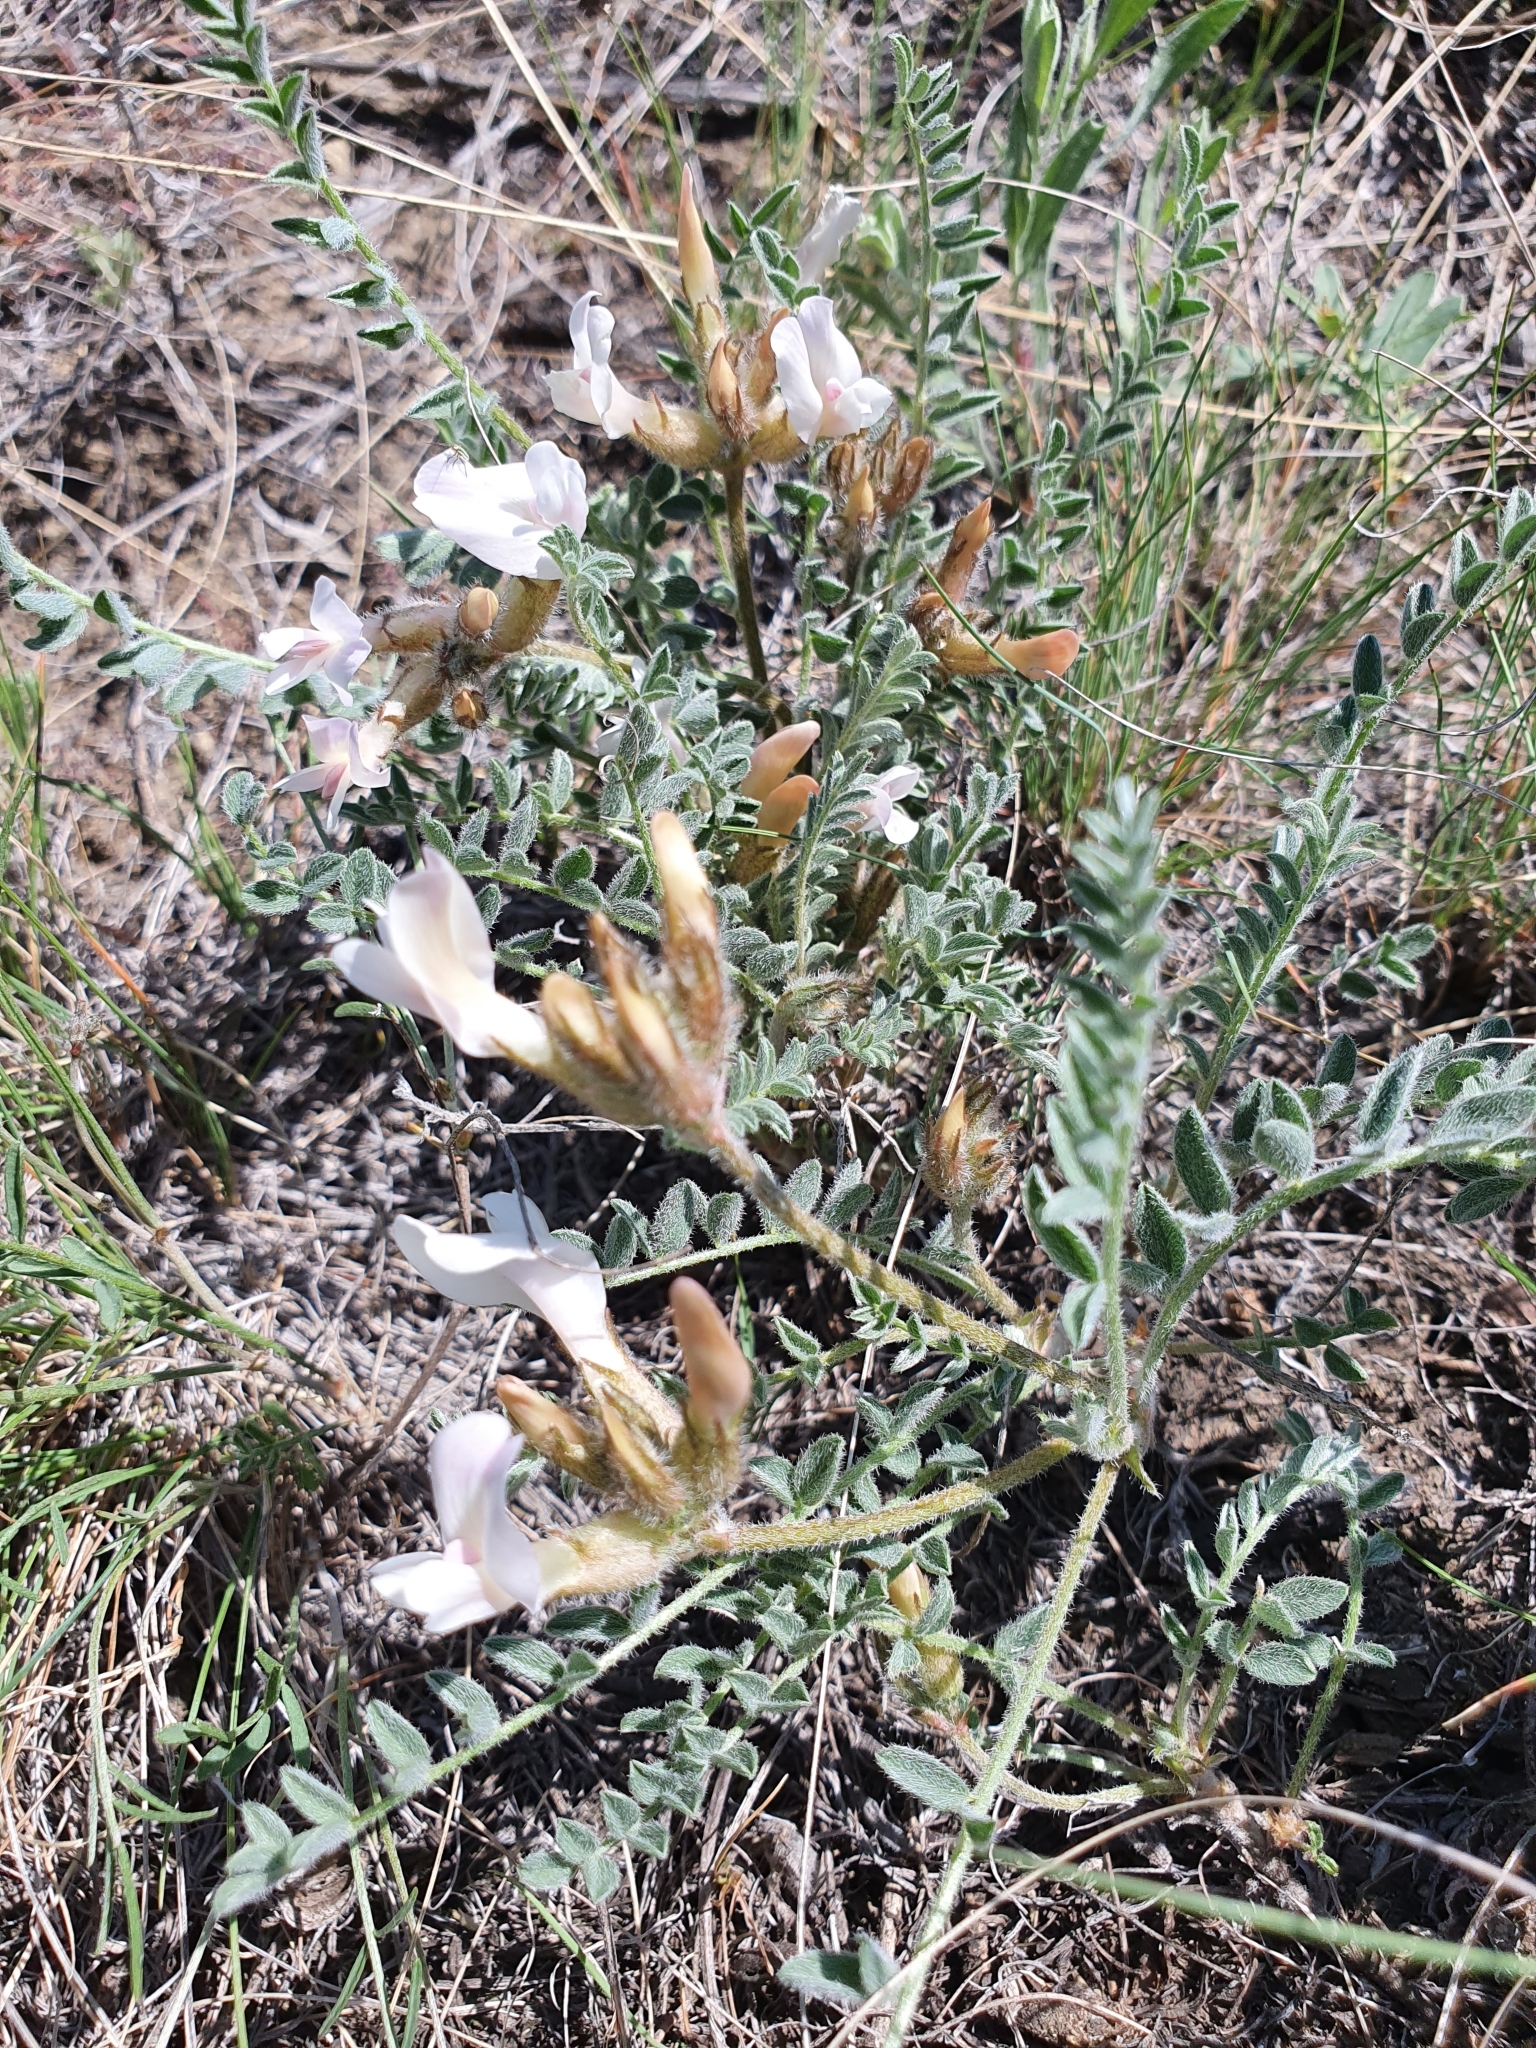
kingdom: Plantae
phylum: Tracheophyta
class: Magnoliopsida
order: Fabales
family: Fabaceae
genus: Astragalus
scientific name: Astragalus rupifragus
